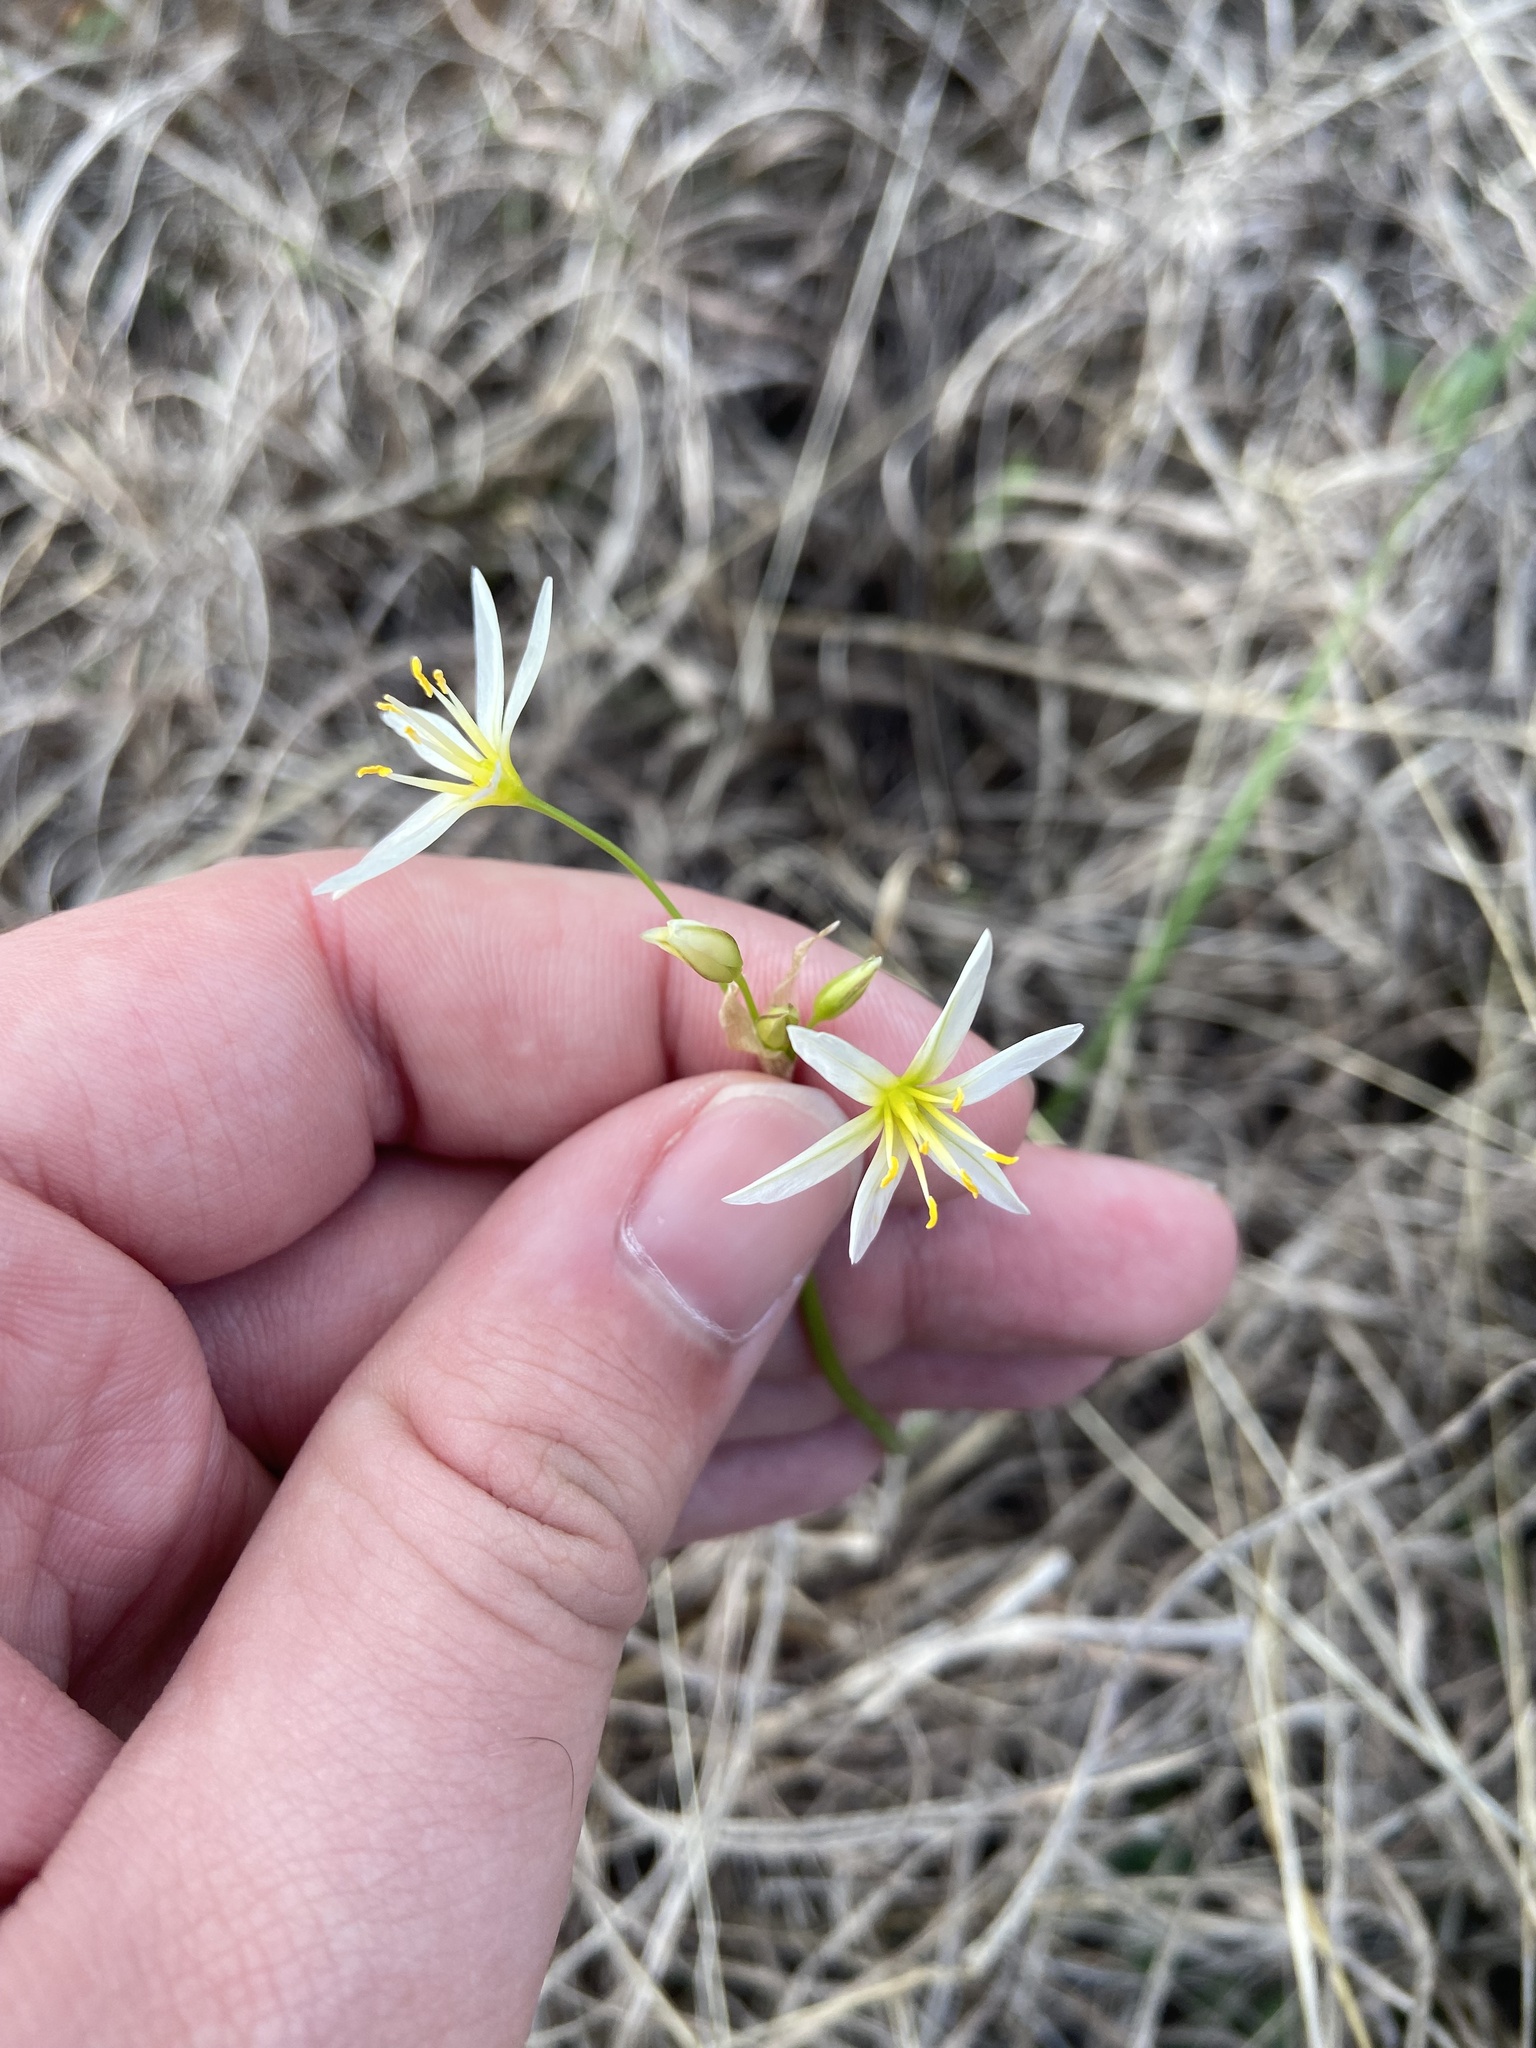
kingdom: Plantae
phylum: Tracheophyta
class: Liliopsida
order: Asparagales
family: Amaryllidaceae
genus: Nothoscordum
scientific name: Nothoscordum bivalve
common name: Crow-poison
